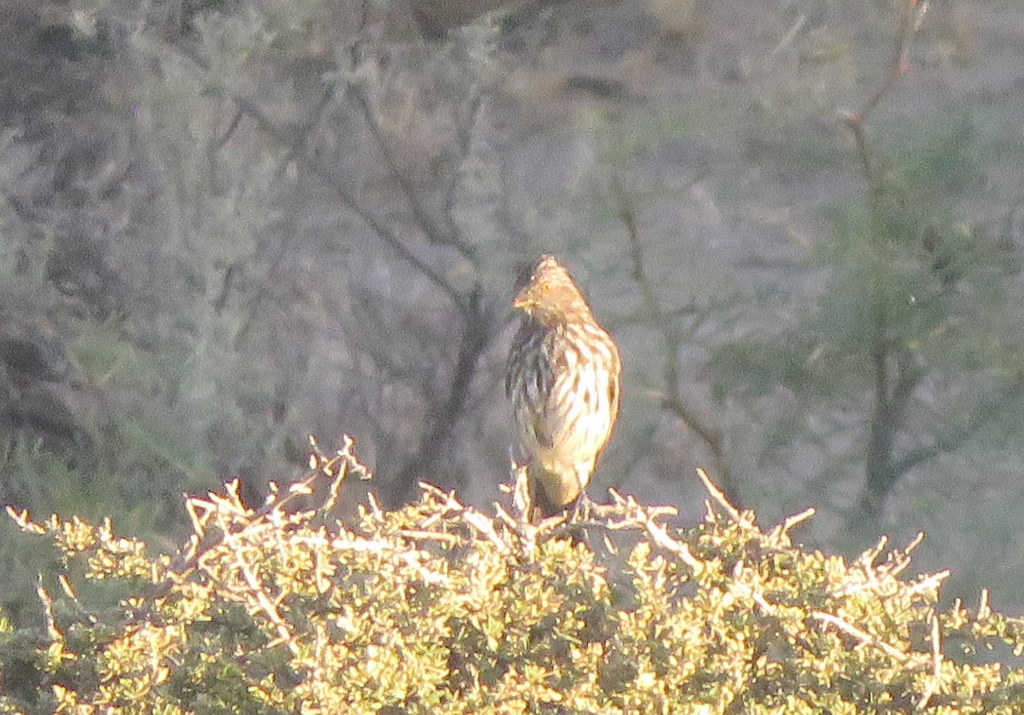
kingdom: Animalia
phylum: Chordata
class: Aves
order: Passeriformes
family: Cotingidae
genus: Phytotoma
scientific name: Phytotoma rutila
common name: White-tipped plantcutter
